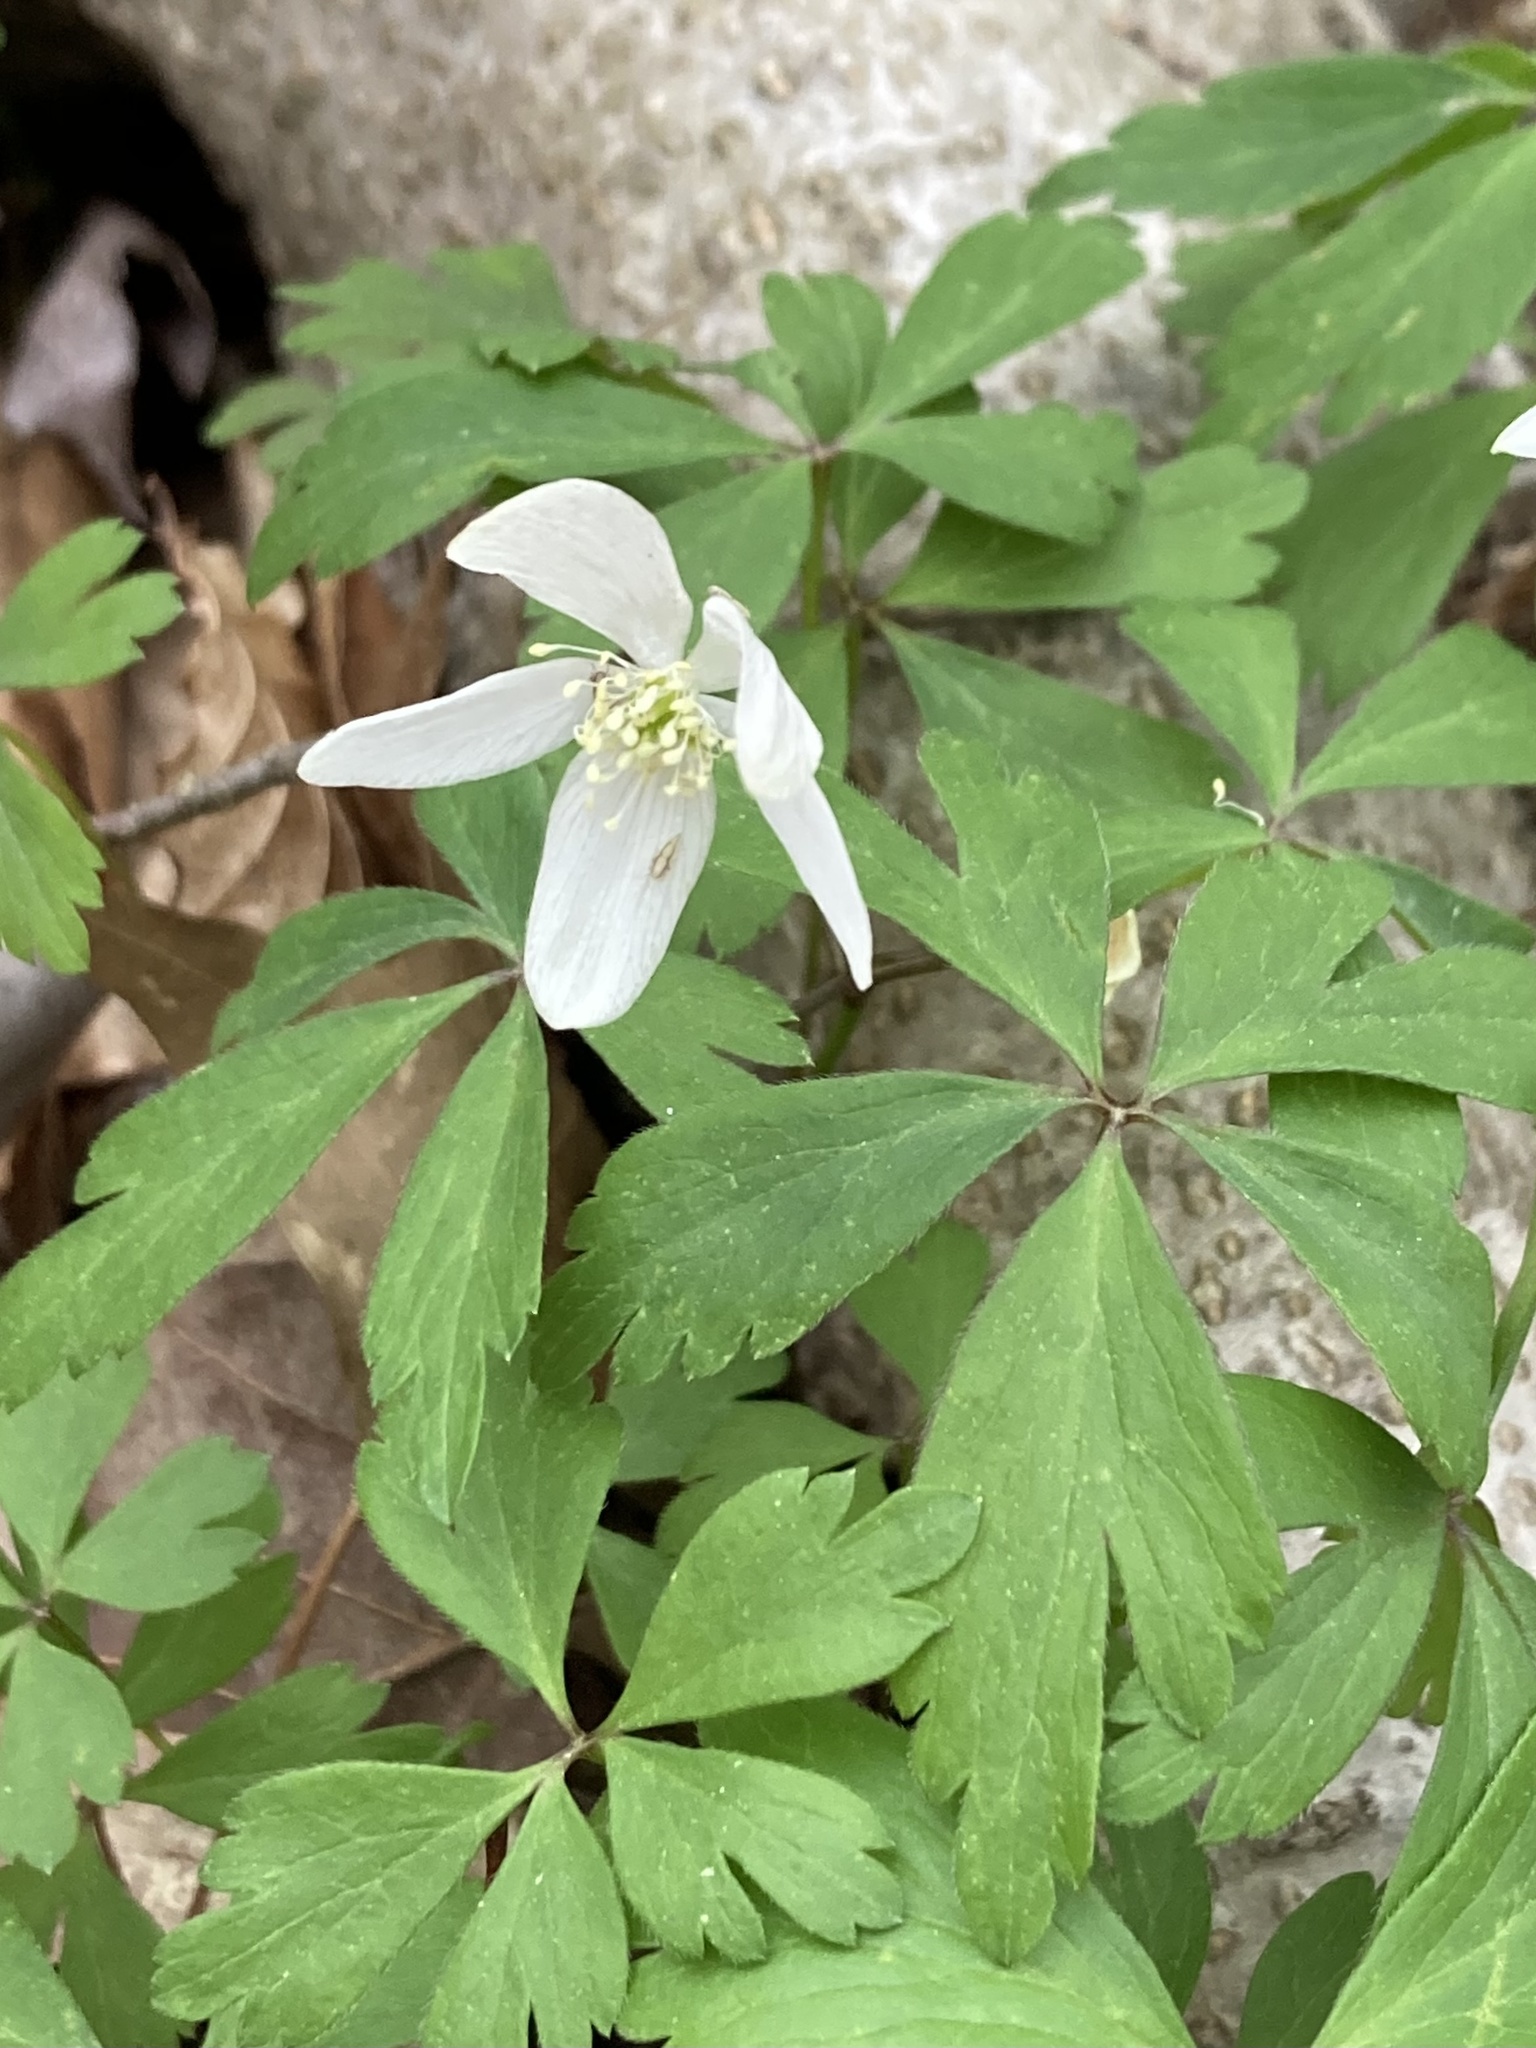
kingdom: Plantae
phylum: Tracheophyta
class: Magnoliopsida
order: Ranunculales
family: Ranunculaceae
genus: Anemone
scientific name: Anemone quinquefolia
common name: Wood anemone
